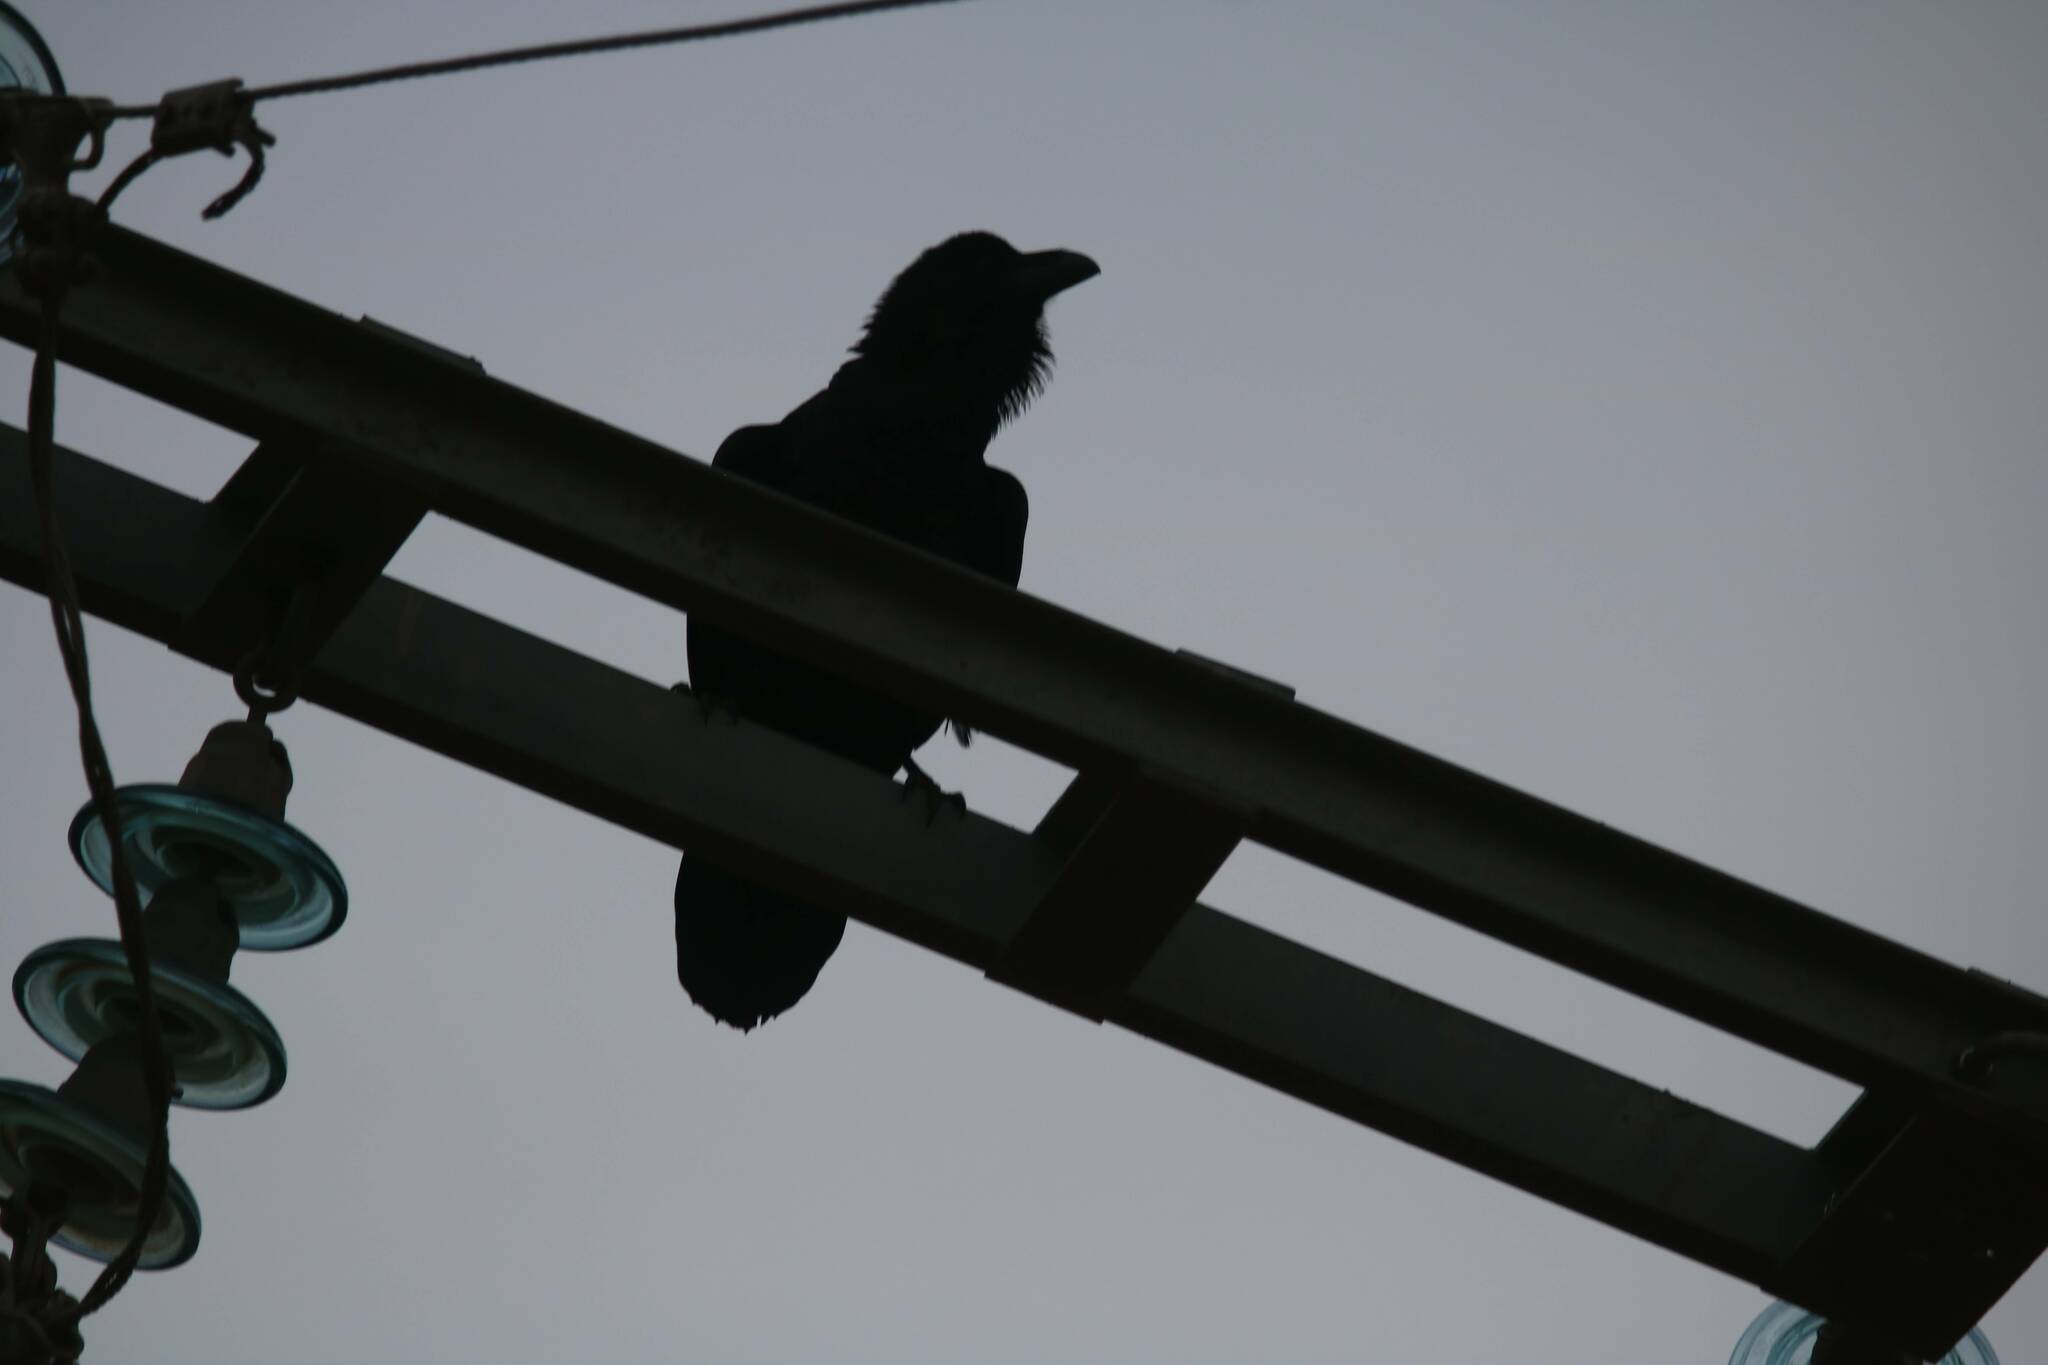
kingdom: Animalia
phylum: Chordata
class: Aves
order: Passeriformes
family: Corvidae
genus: Corvus
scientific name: Corvus corax
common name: Common raven
